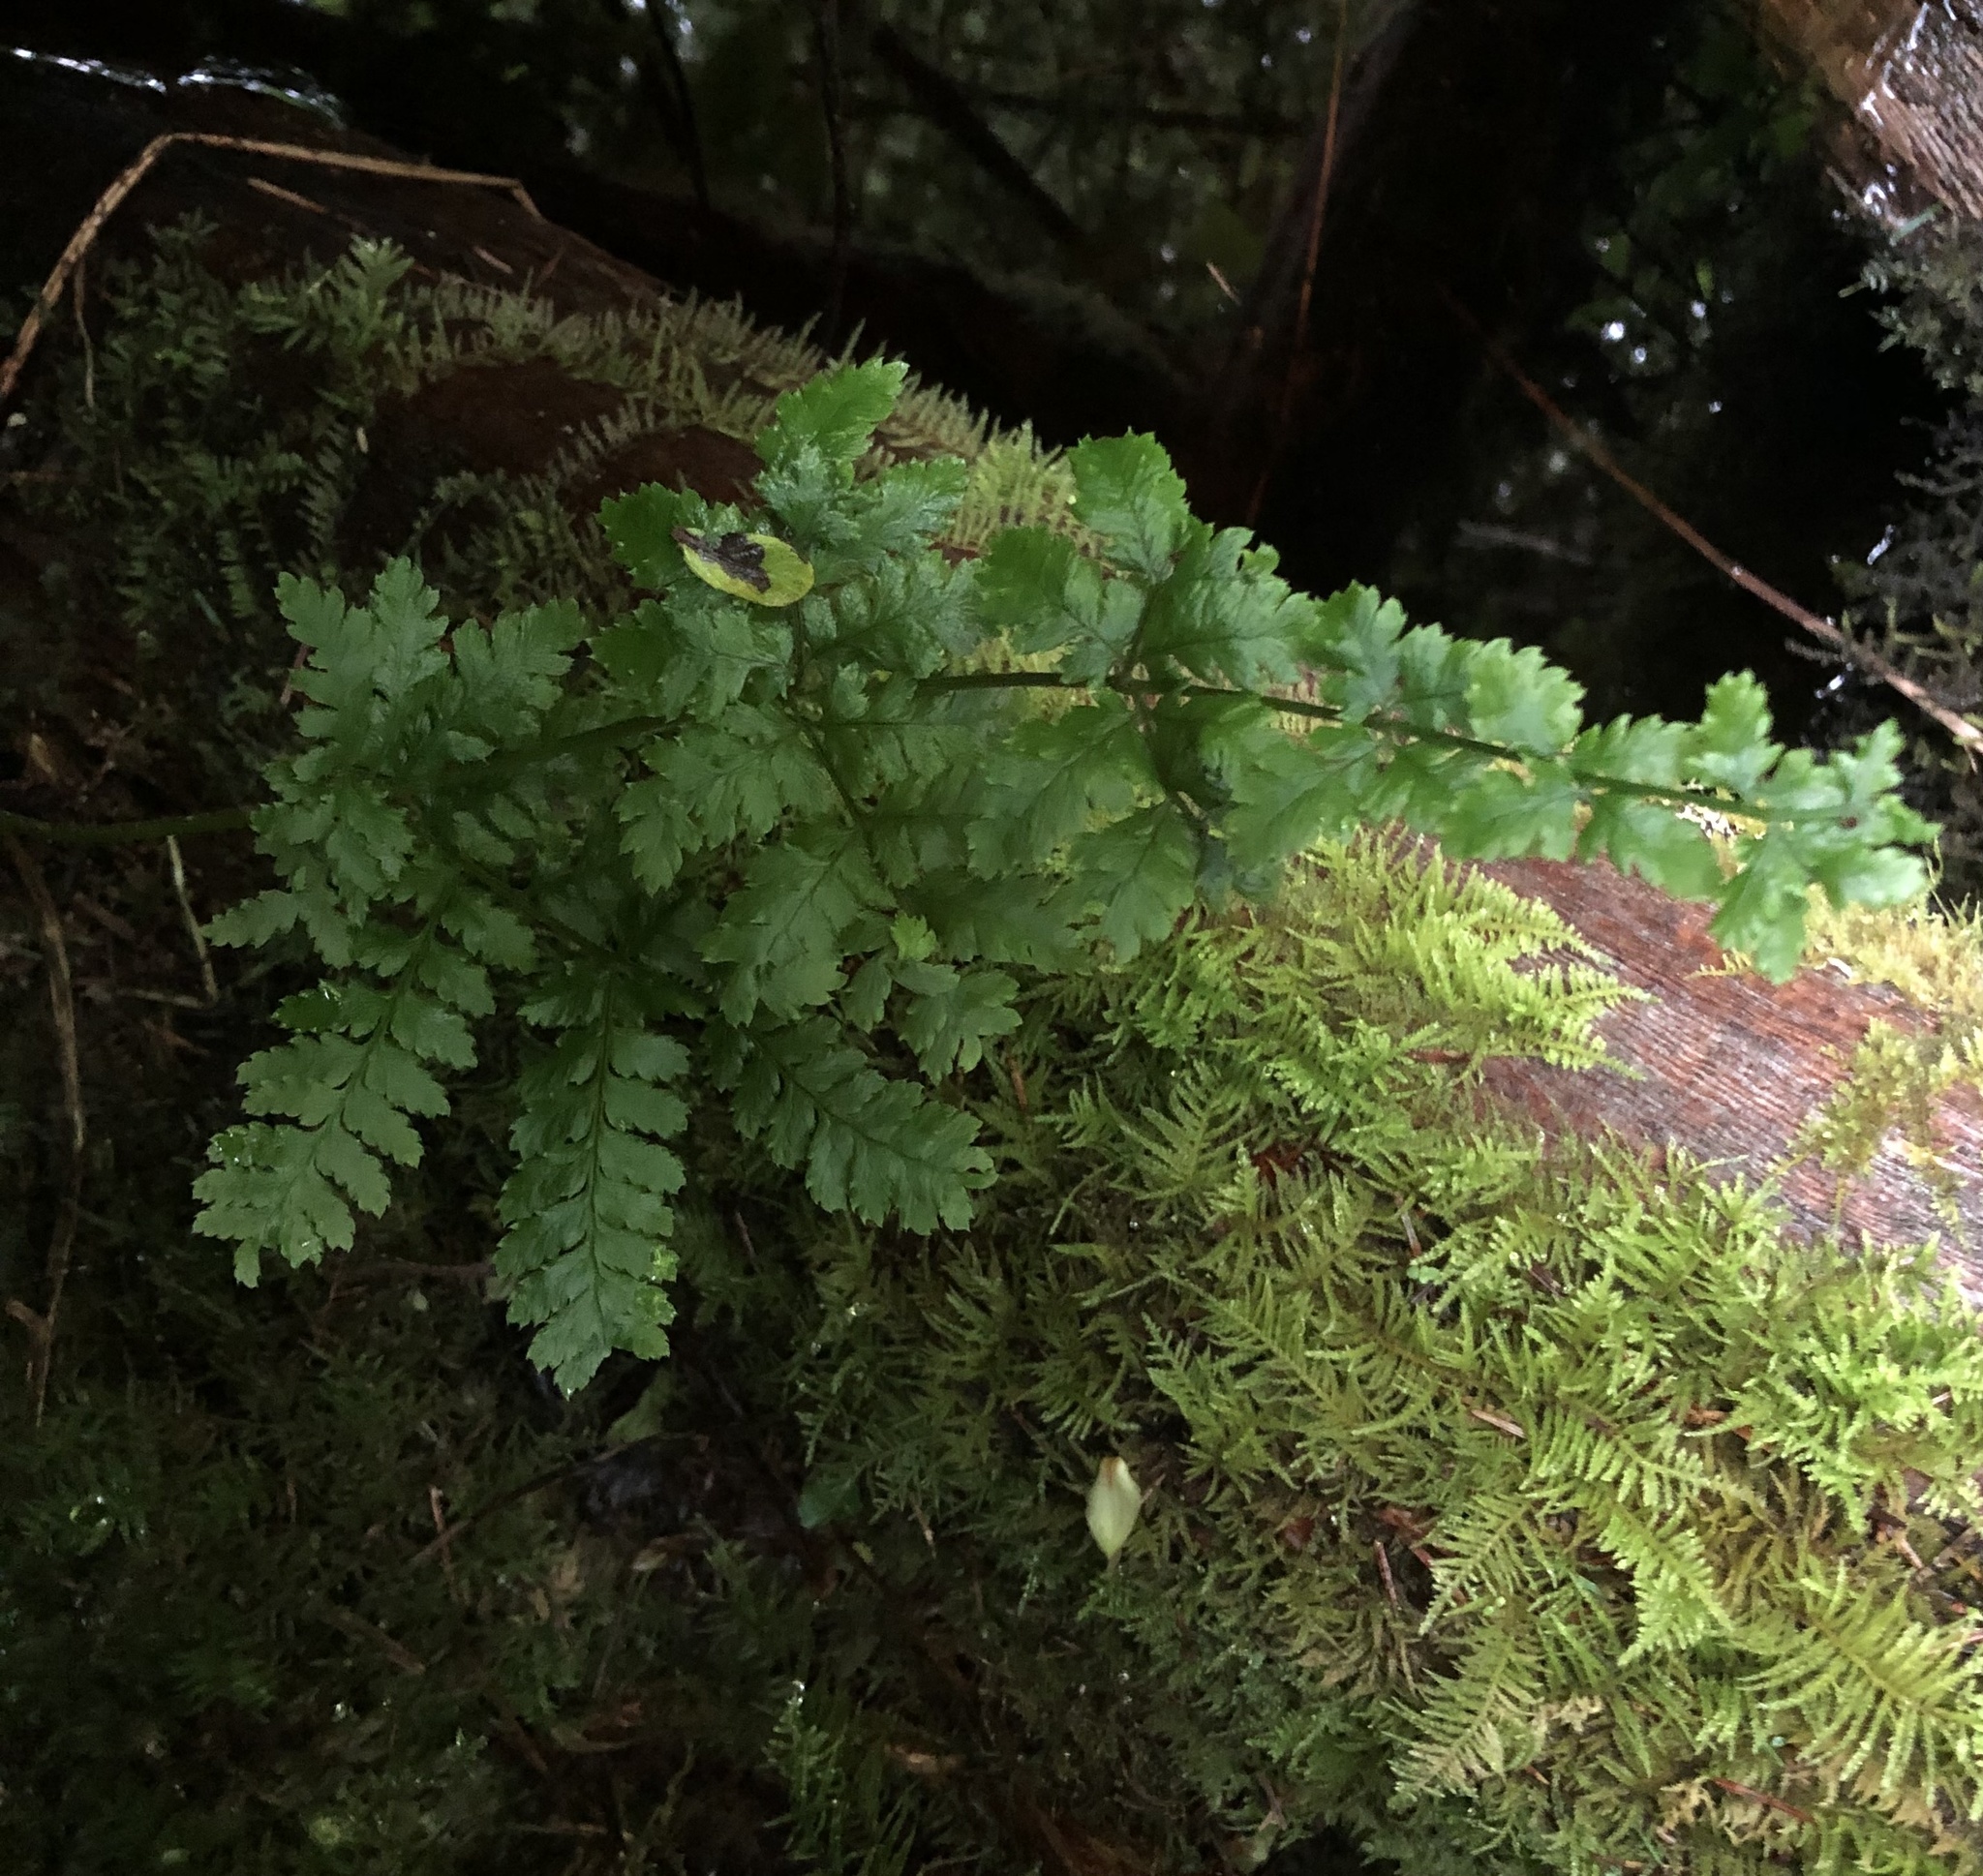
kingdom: Plantae
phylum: Tracheophyta
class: Polypodiopsida
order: Polypodiales
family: Dryopteridaceae
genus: Dryopteris
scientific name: Dryopteris expansa
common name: Northern buckler fern
